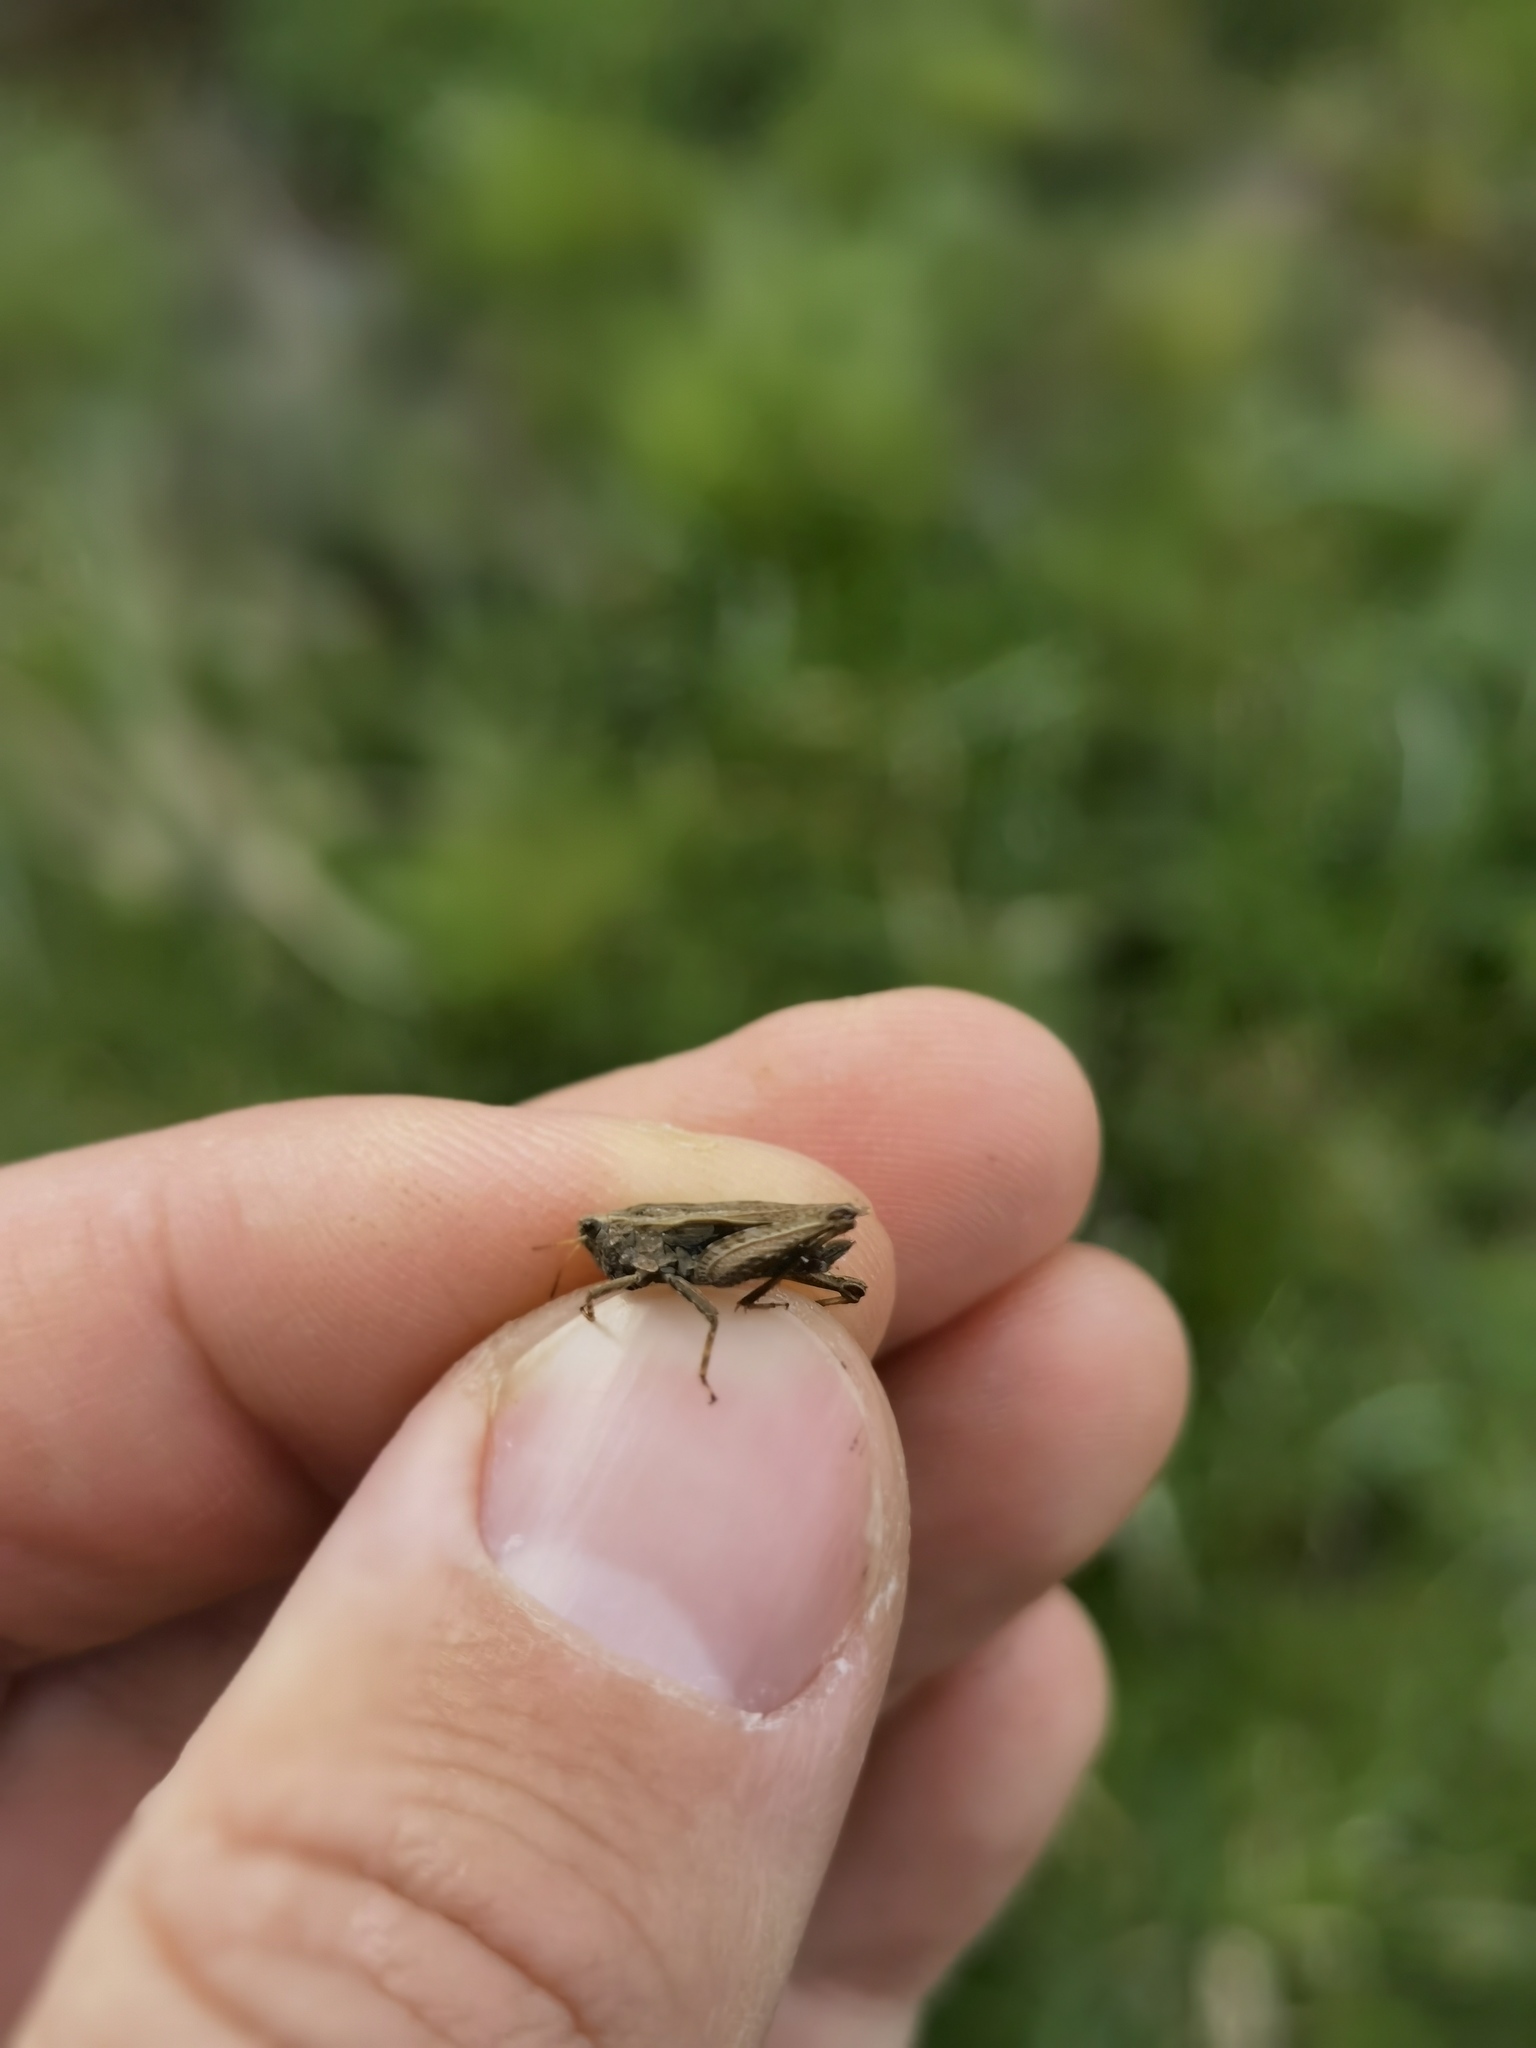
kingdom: Animalia
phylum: Arthropoda
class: Insecta
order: Orthoptera
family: Tetrigidae
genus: Tetrix
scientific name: Tetrix undulata
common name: Common groundhopper
